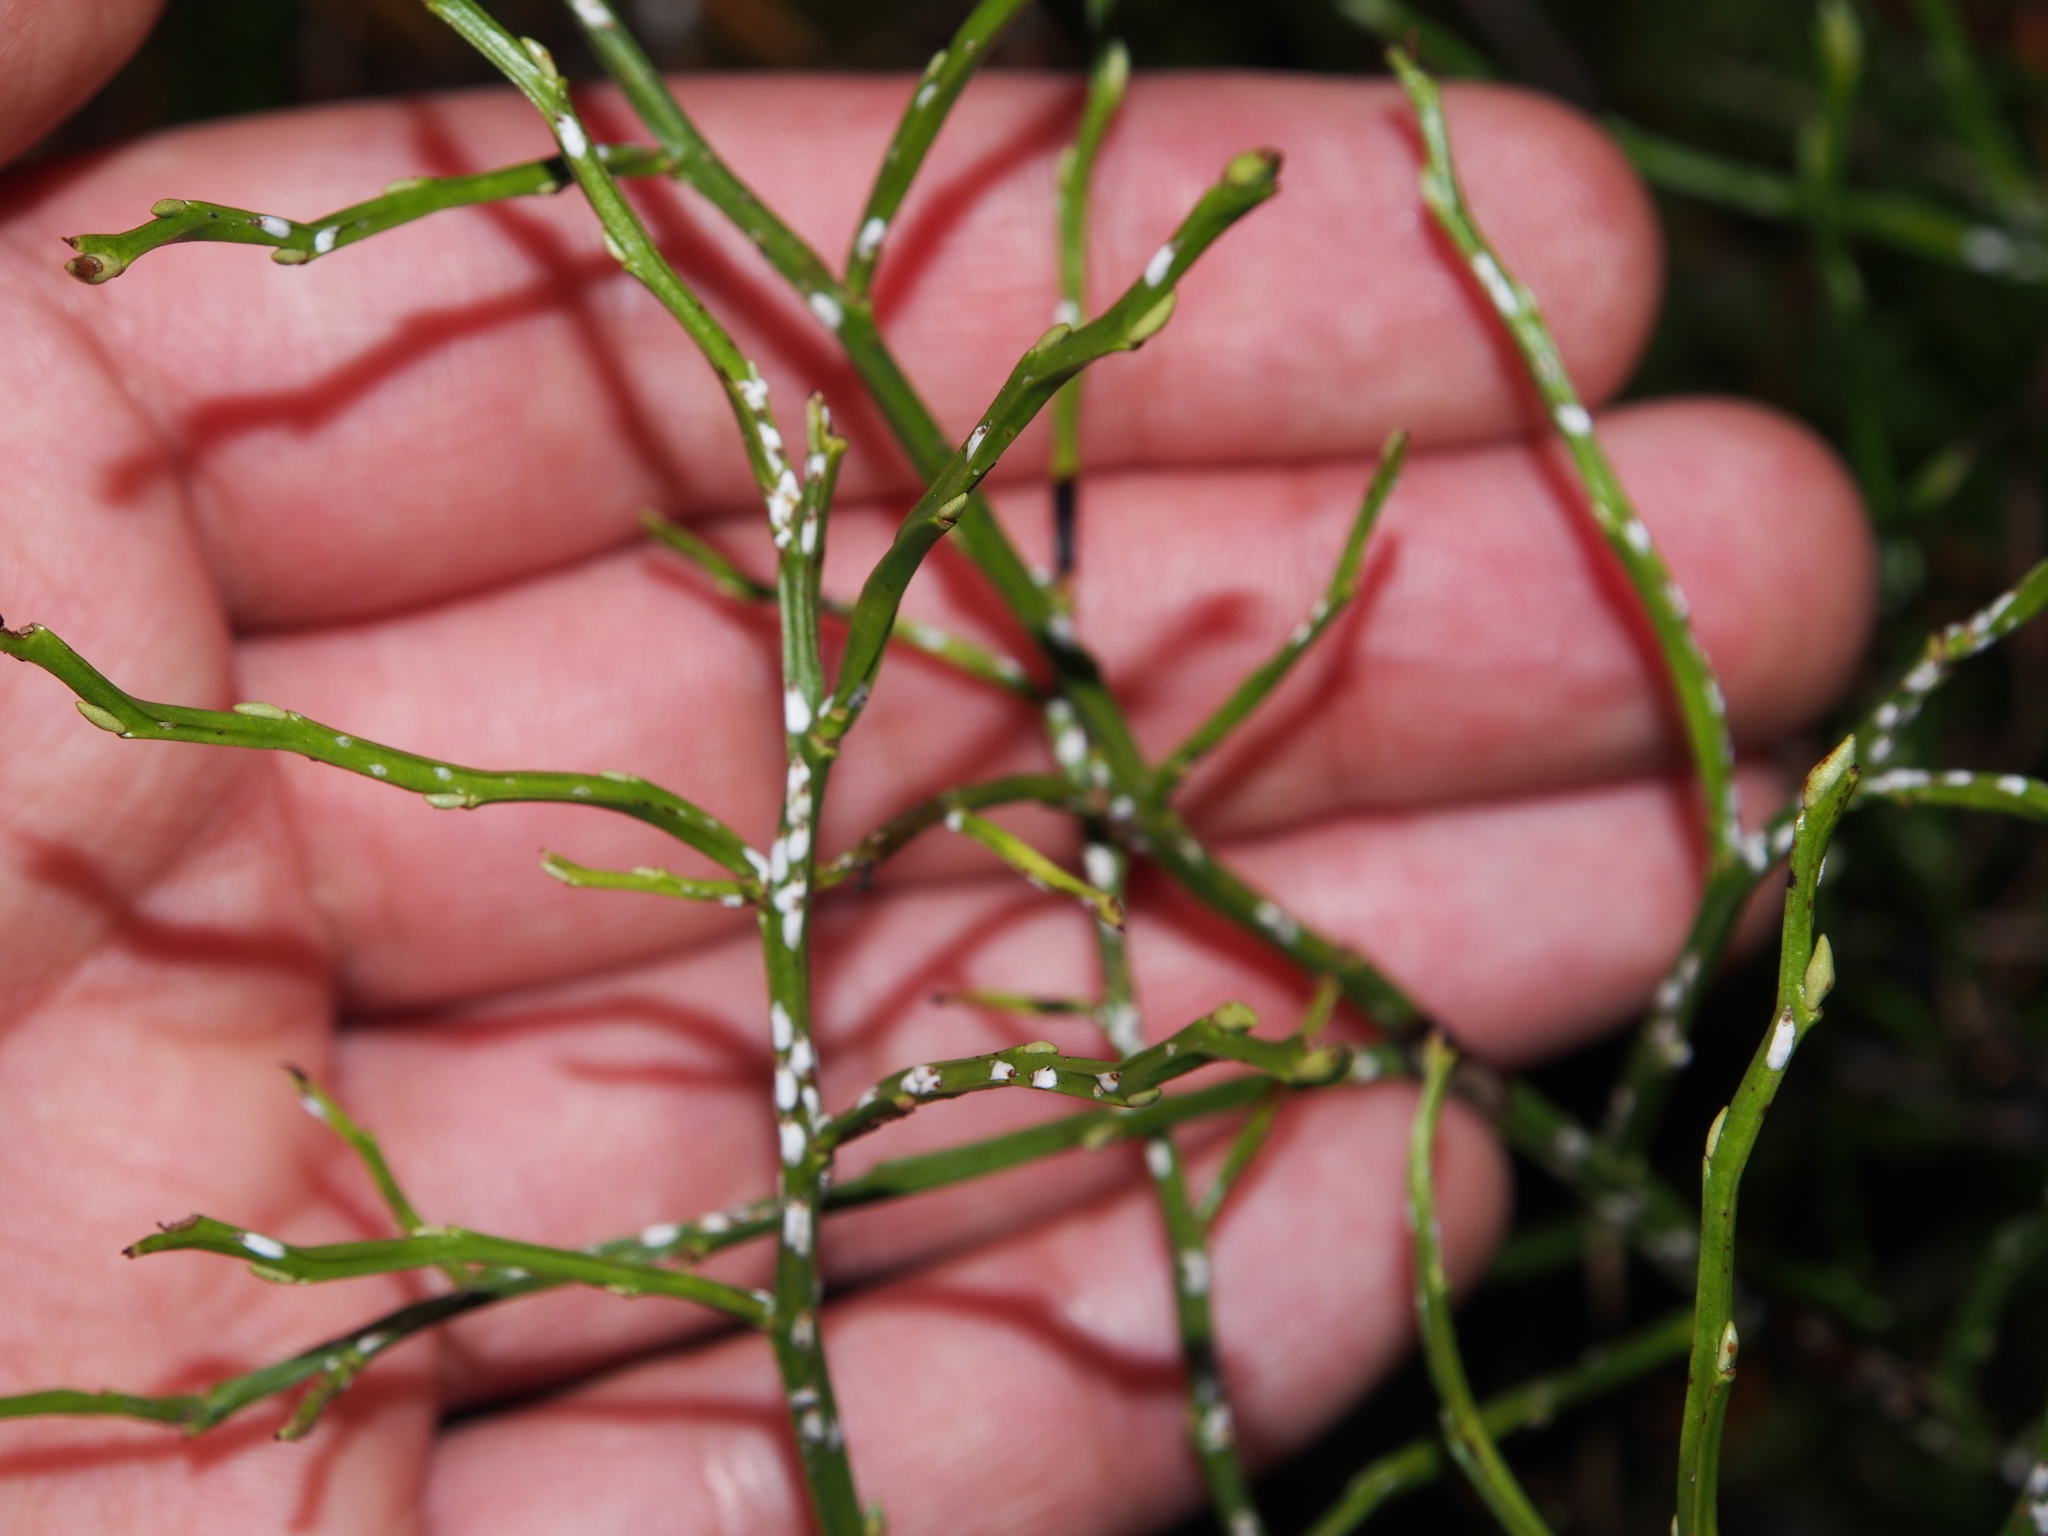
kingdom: Plantae
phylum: Tracheophyta
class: Magnoliopsida
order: Ericales
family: Ericaceae
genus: Vaccinium
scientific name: Vaccinium myrtillus
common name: Bilberry
